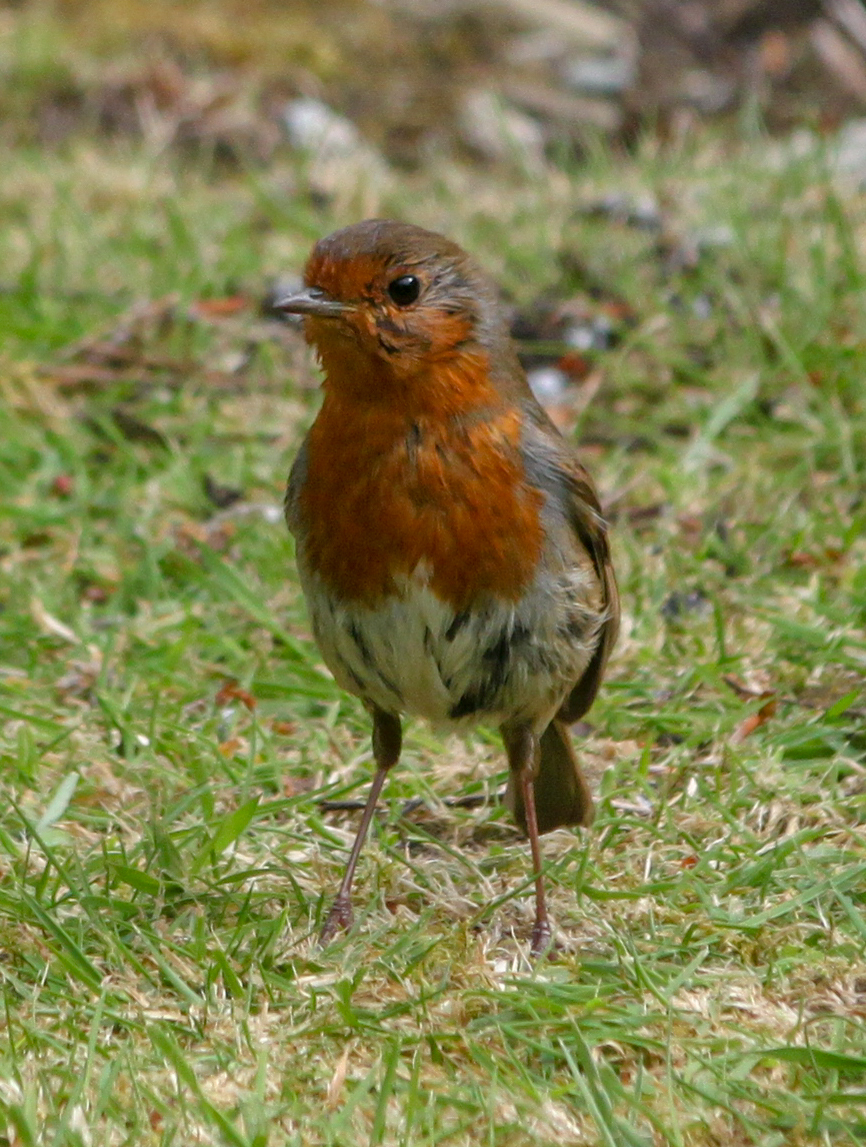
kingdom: Animalia
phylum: Chordata
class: Aves
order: Passeriformes
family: Muscicapidae
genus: Erithacus
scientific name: Erithacus rubecula
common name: European robin
